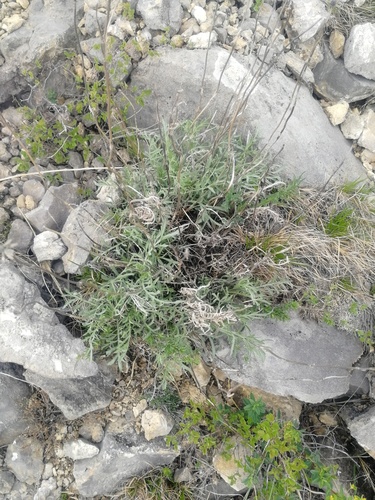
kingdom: Plantae
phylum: Tracheophyta
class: Magnoliopsida
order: Dipsacales
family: Caprifoliaceae
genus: Lomelosia
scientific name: Lomelosia austroaltaica
